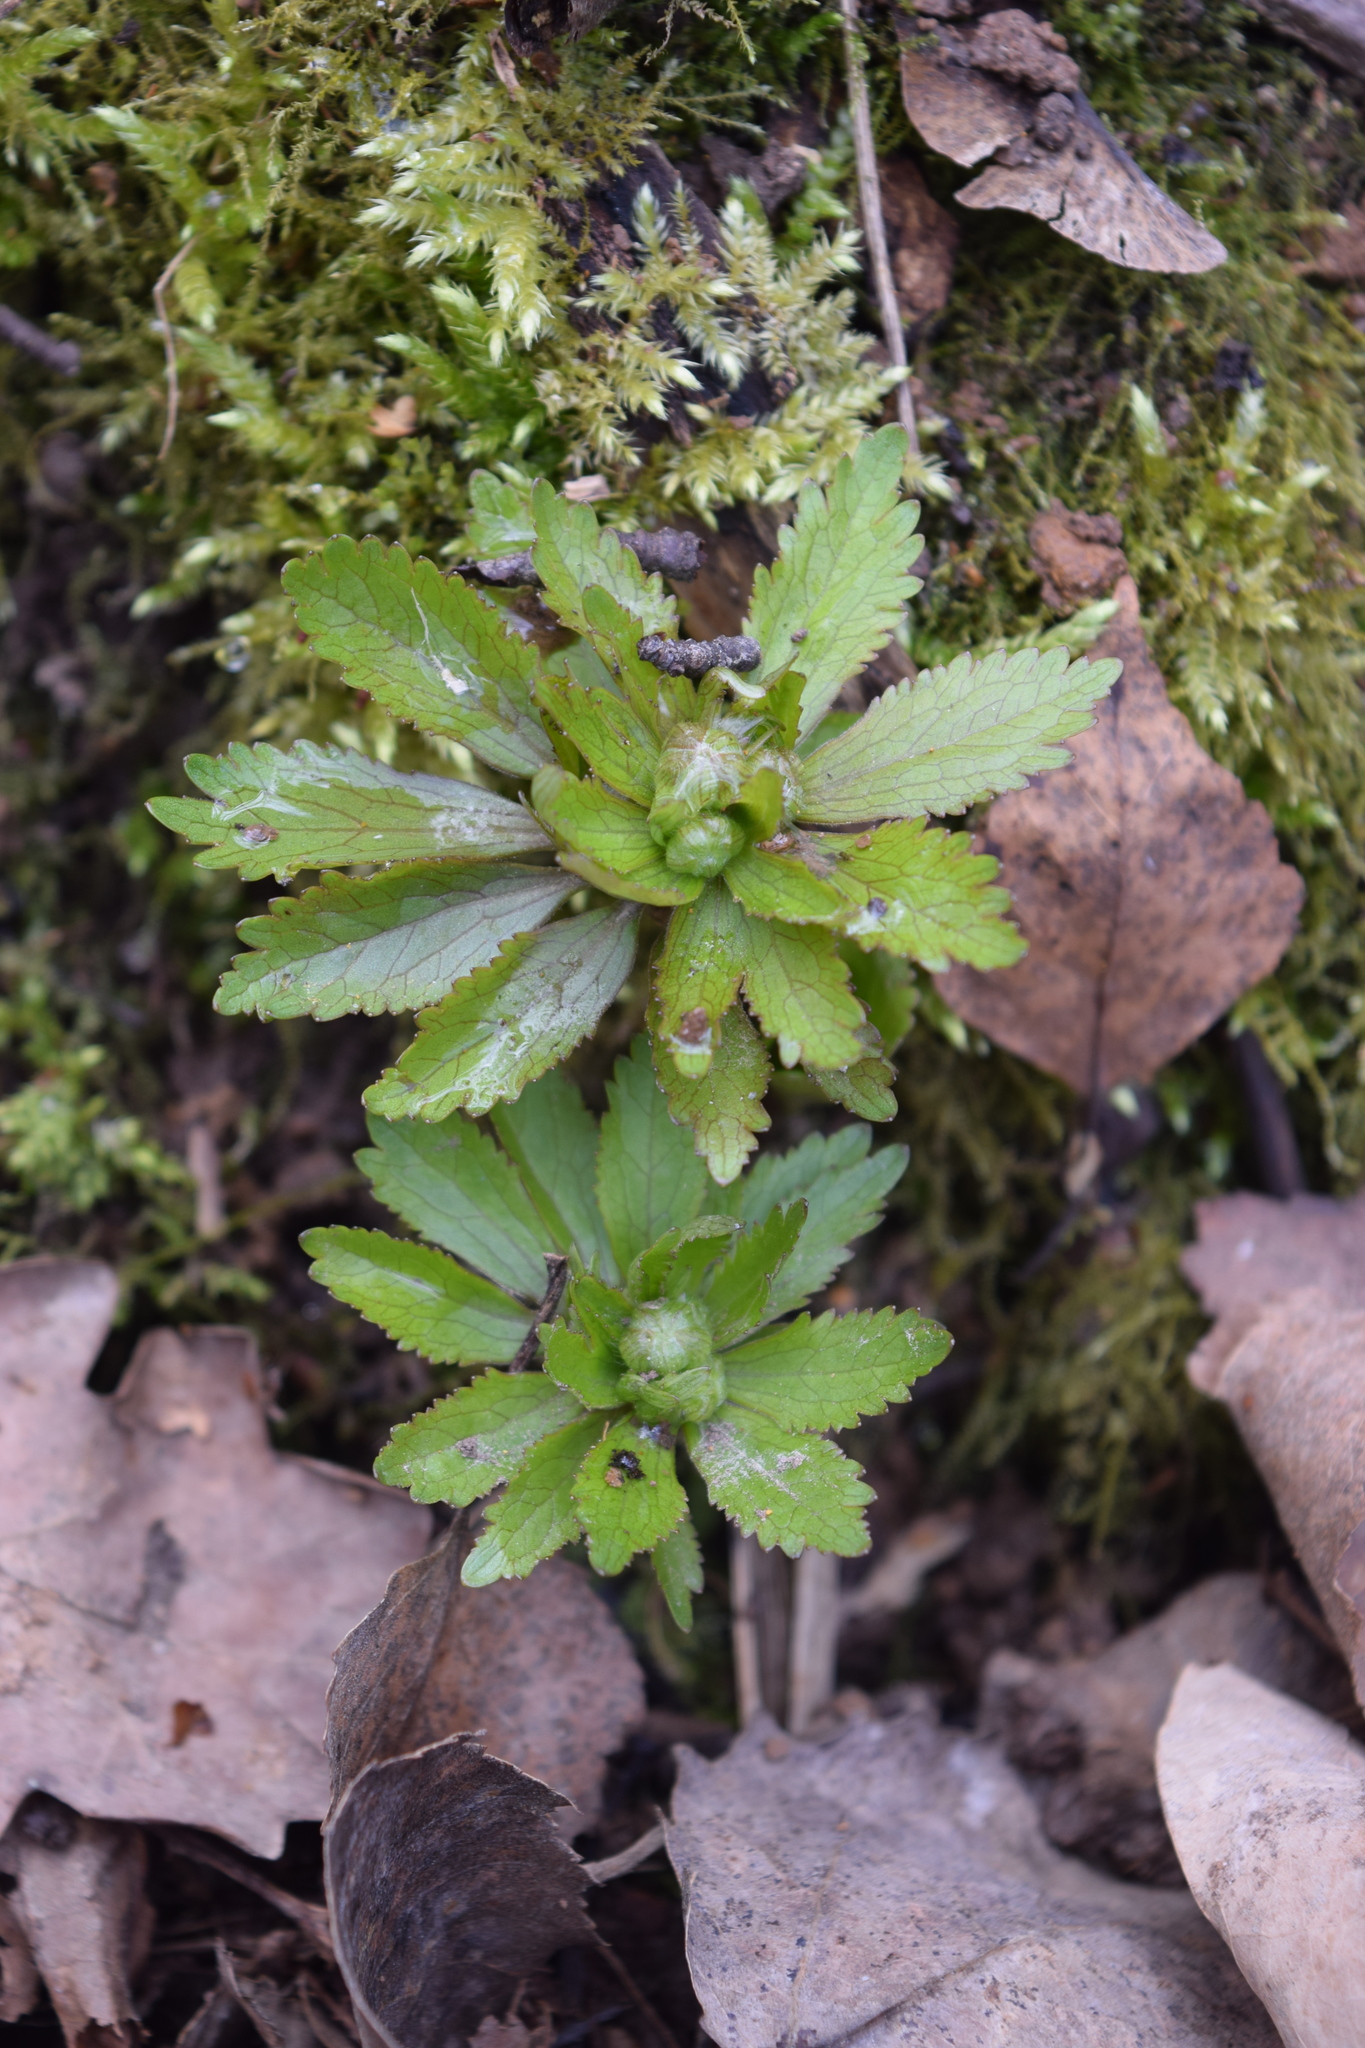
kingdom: Plantae
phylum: Tracheophyta
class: Magnoliopsida
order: Ranunculales
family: Ranunculaceae
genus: Ranunculus
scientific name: Ranunculus cassubicus
